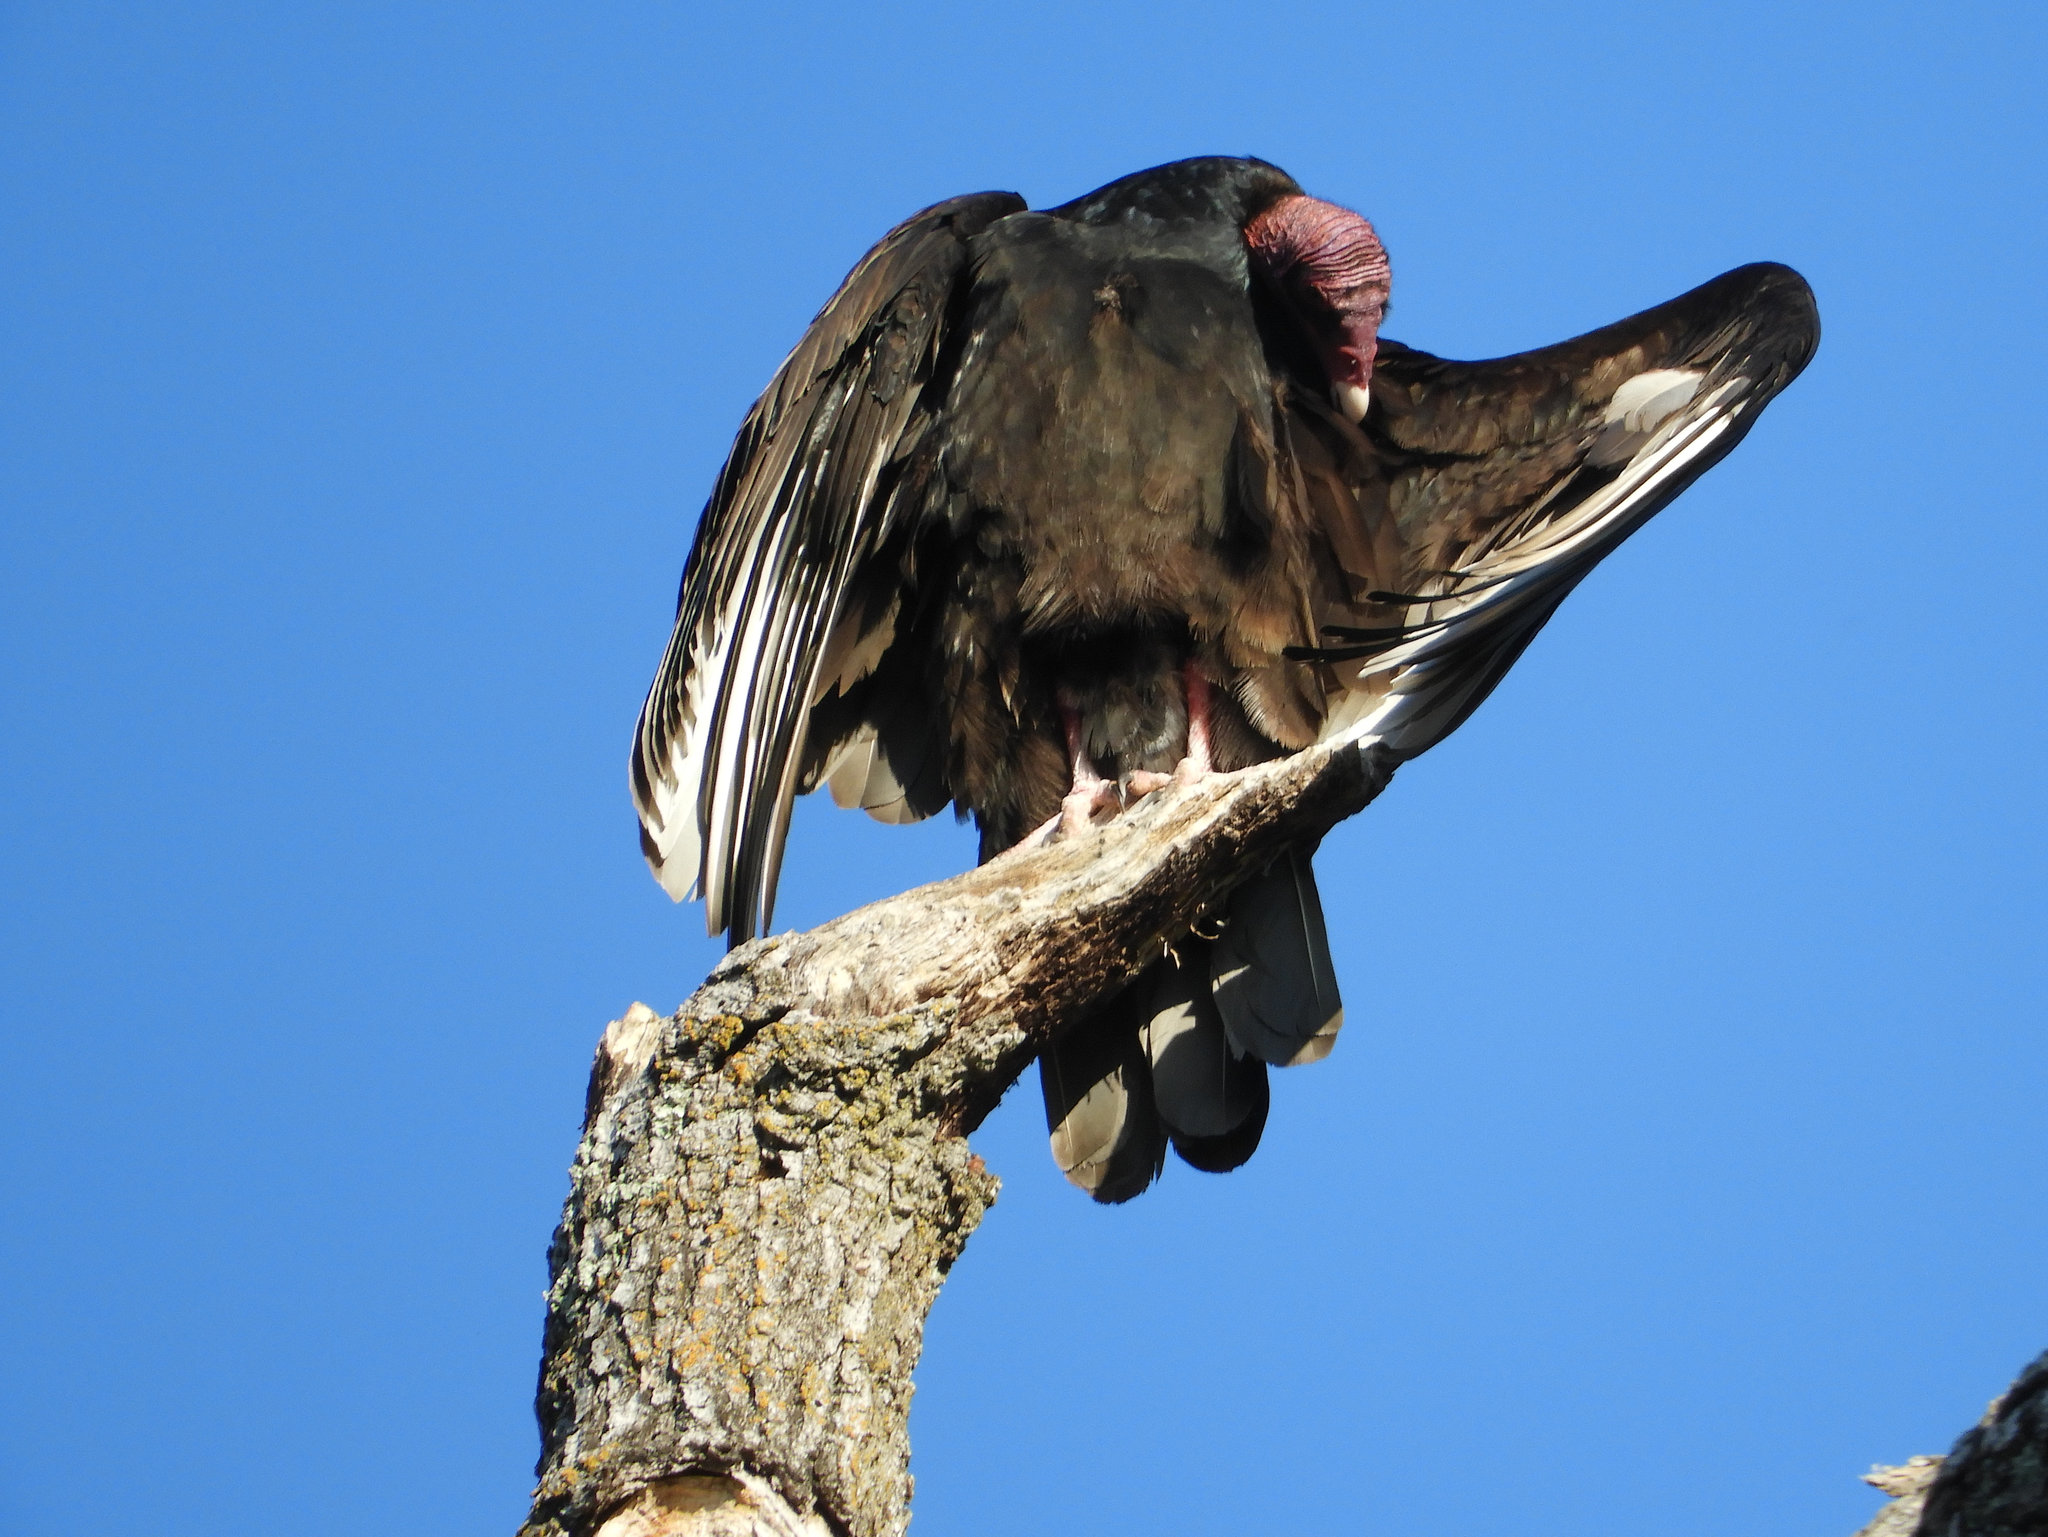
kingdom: Animalia
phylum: Chordata
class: Aves
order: Accipitriformes
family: Cathartidae
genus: Cathartes
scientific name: Cathartes aura
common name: Turkey vulture
